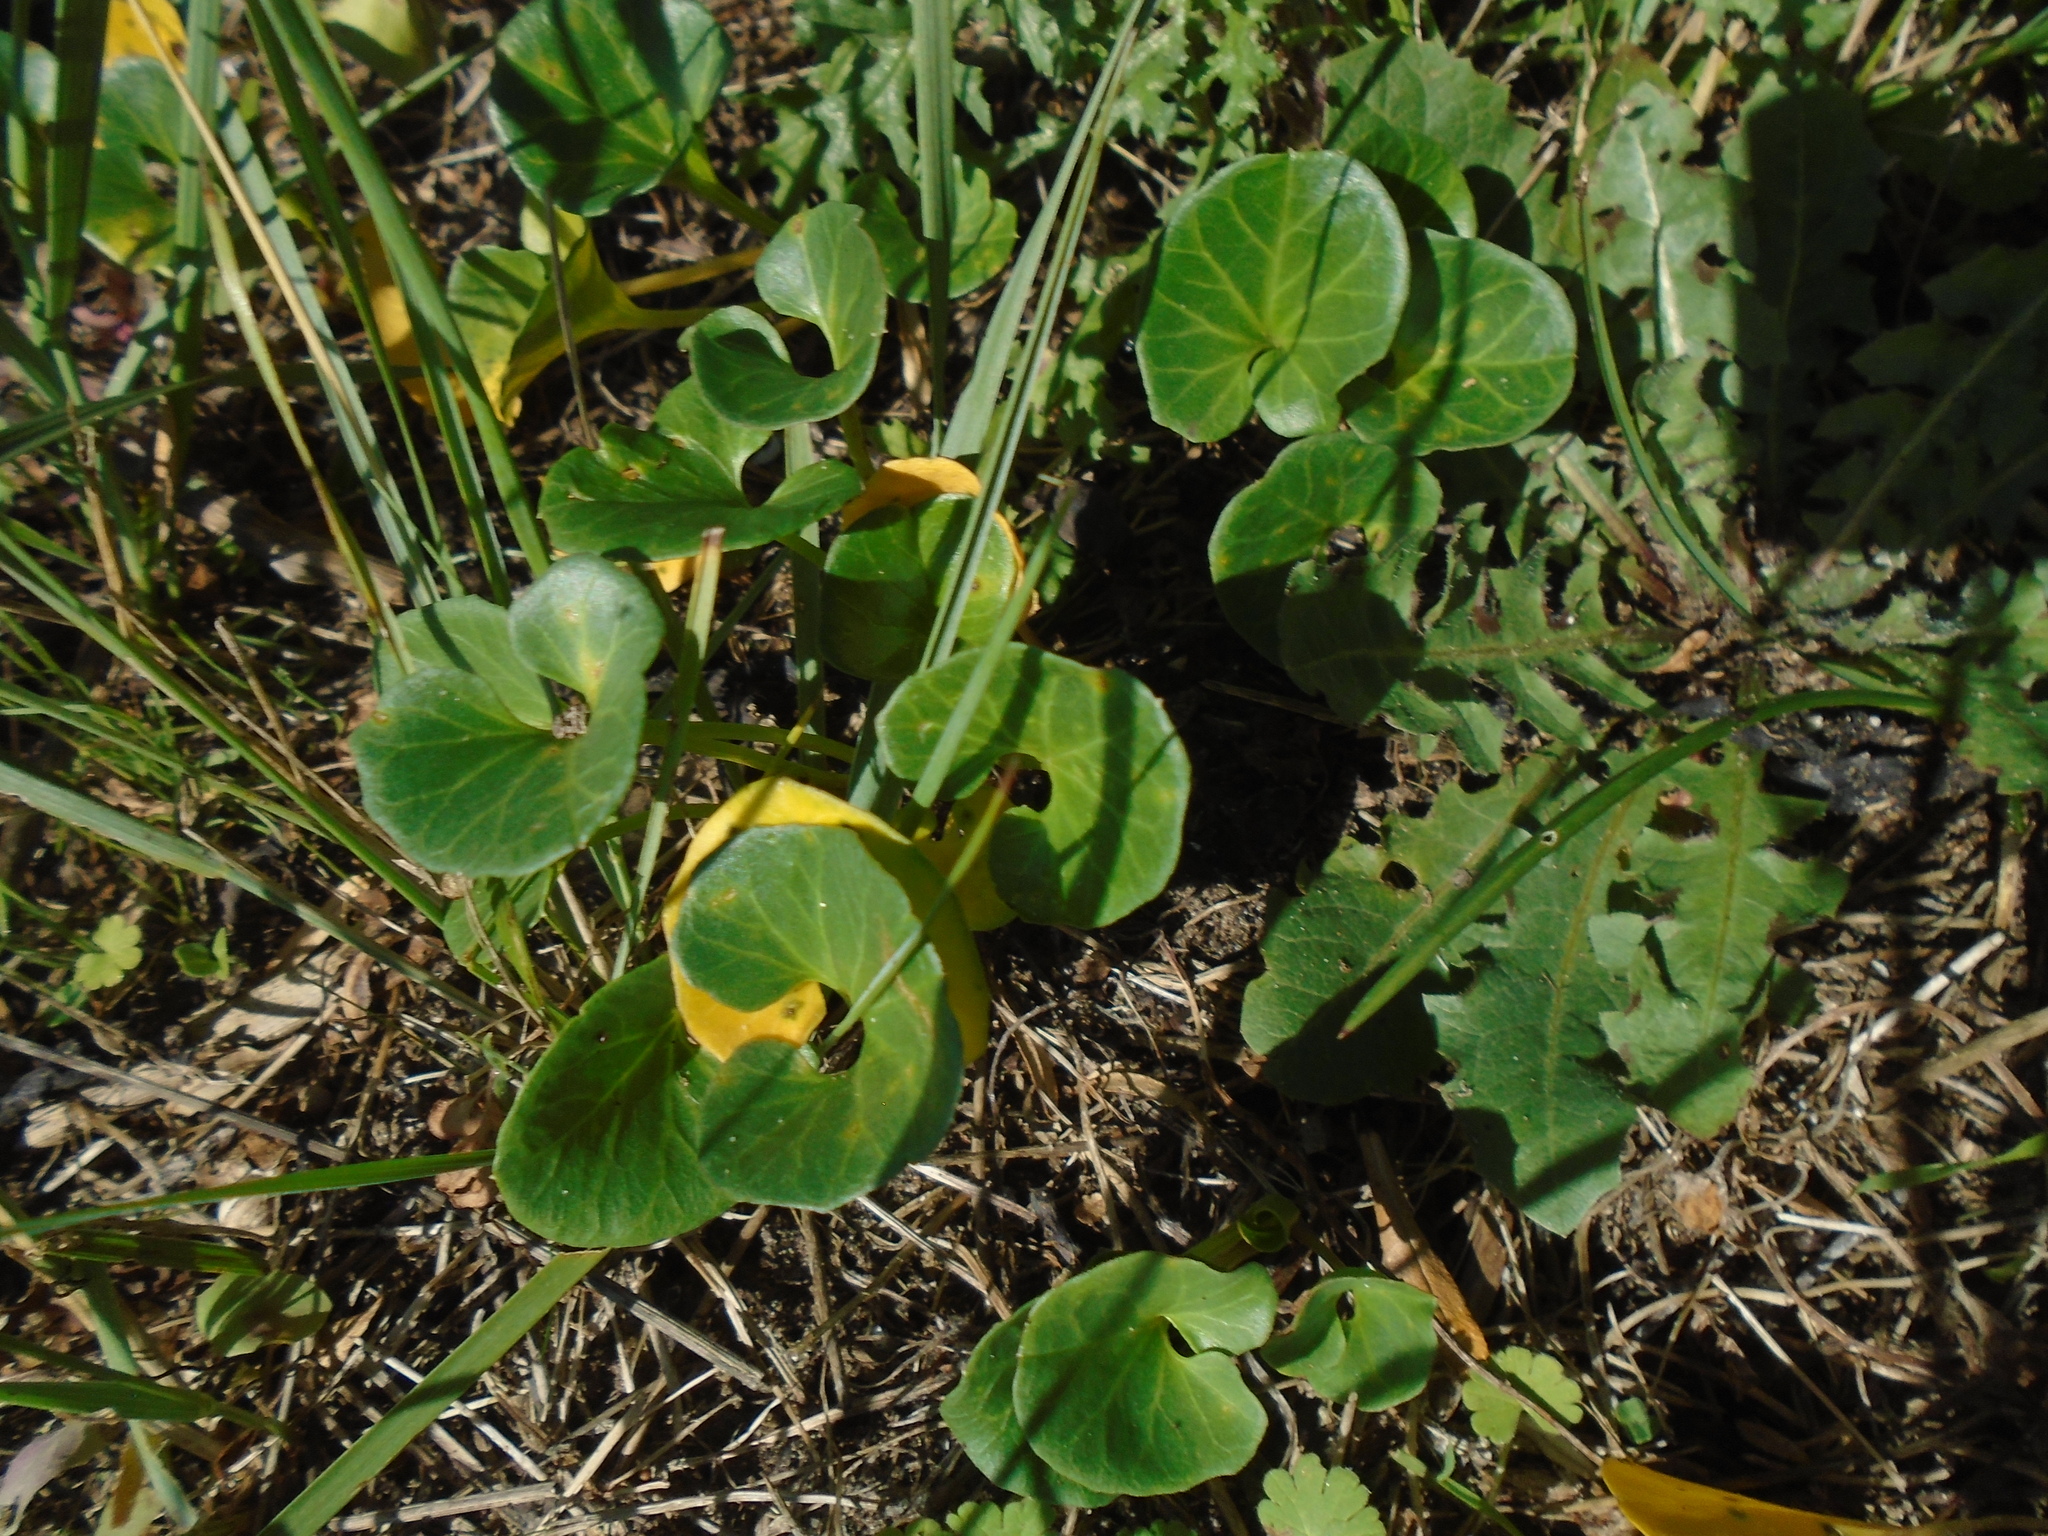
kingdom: Plantae
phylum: Tracheophyta
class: Magnoliopsida
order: Solanales
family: Convolvulaceae
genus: Calystegia
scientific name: Calystegia soldanella
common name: Sea bindweed
